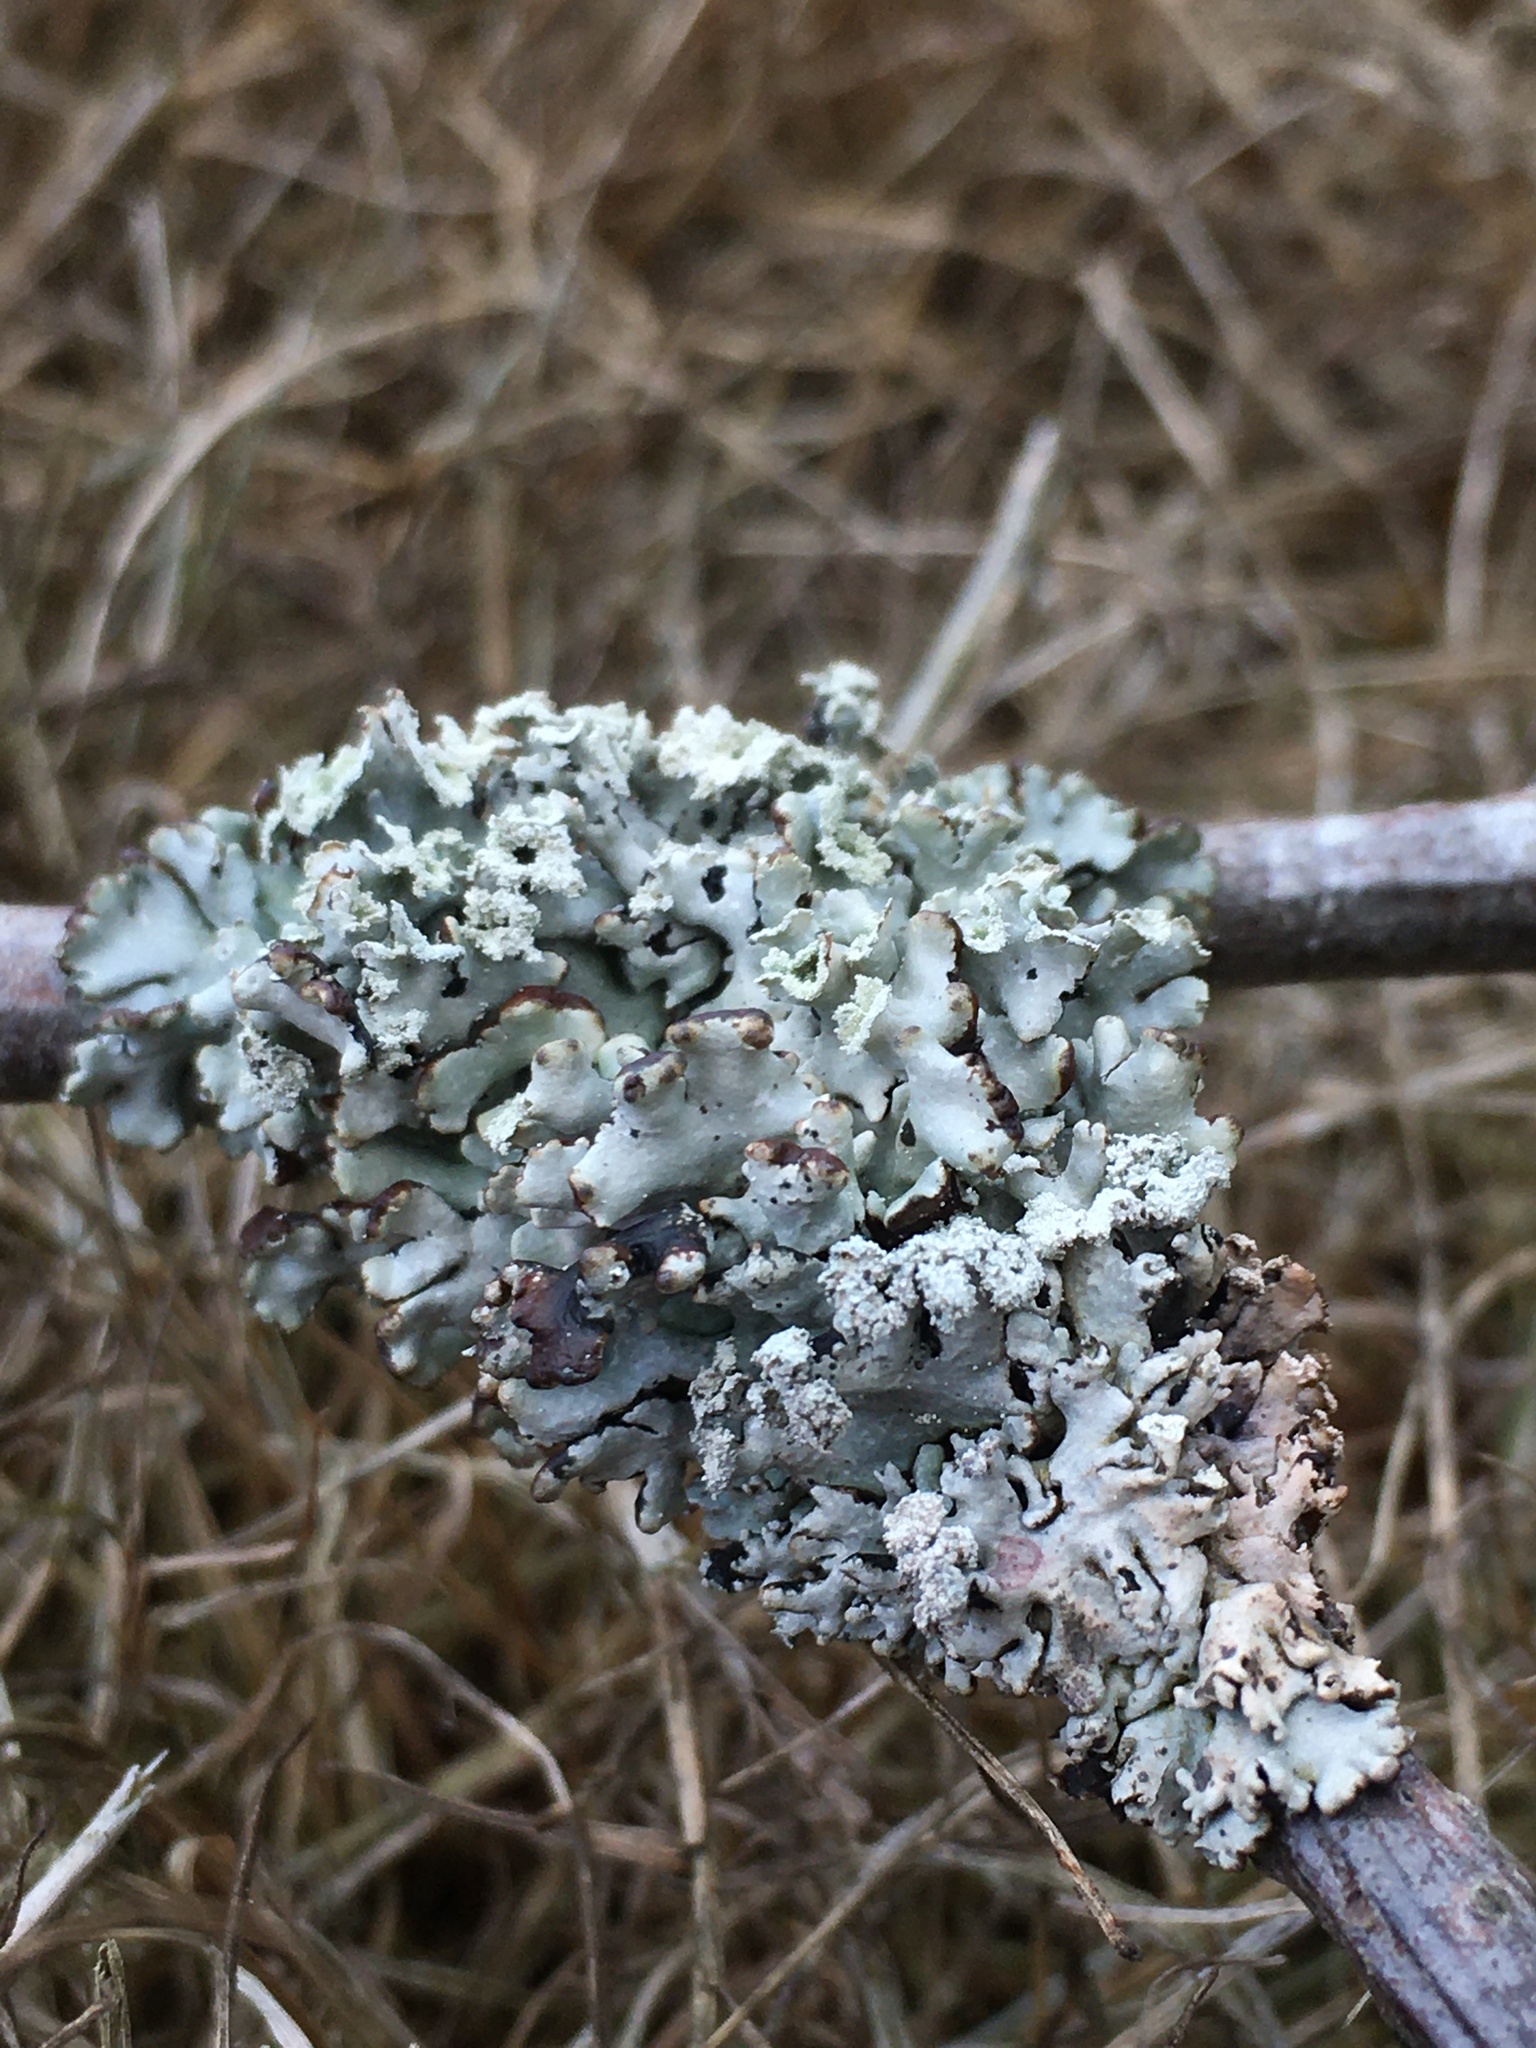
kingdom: Fungi
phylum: Ascomycota
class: Lecanoromycetes
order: Lecanorales
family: Parmeliaceae
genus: Hypogymnia
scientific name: Hypogymnia physodes
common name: Dark crottle
